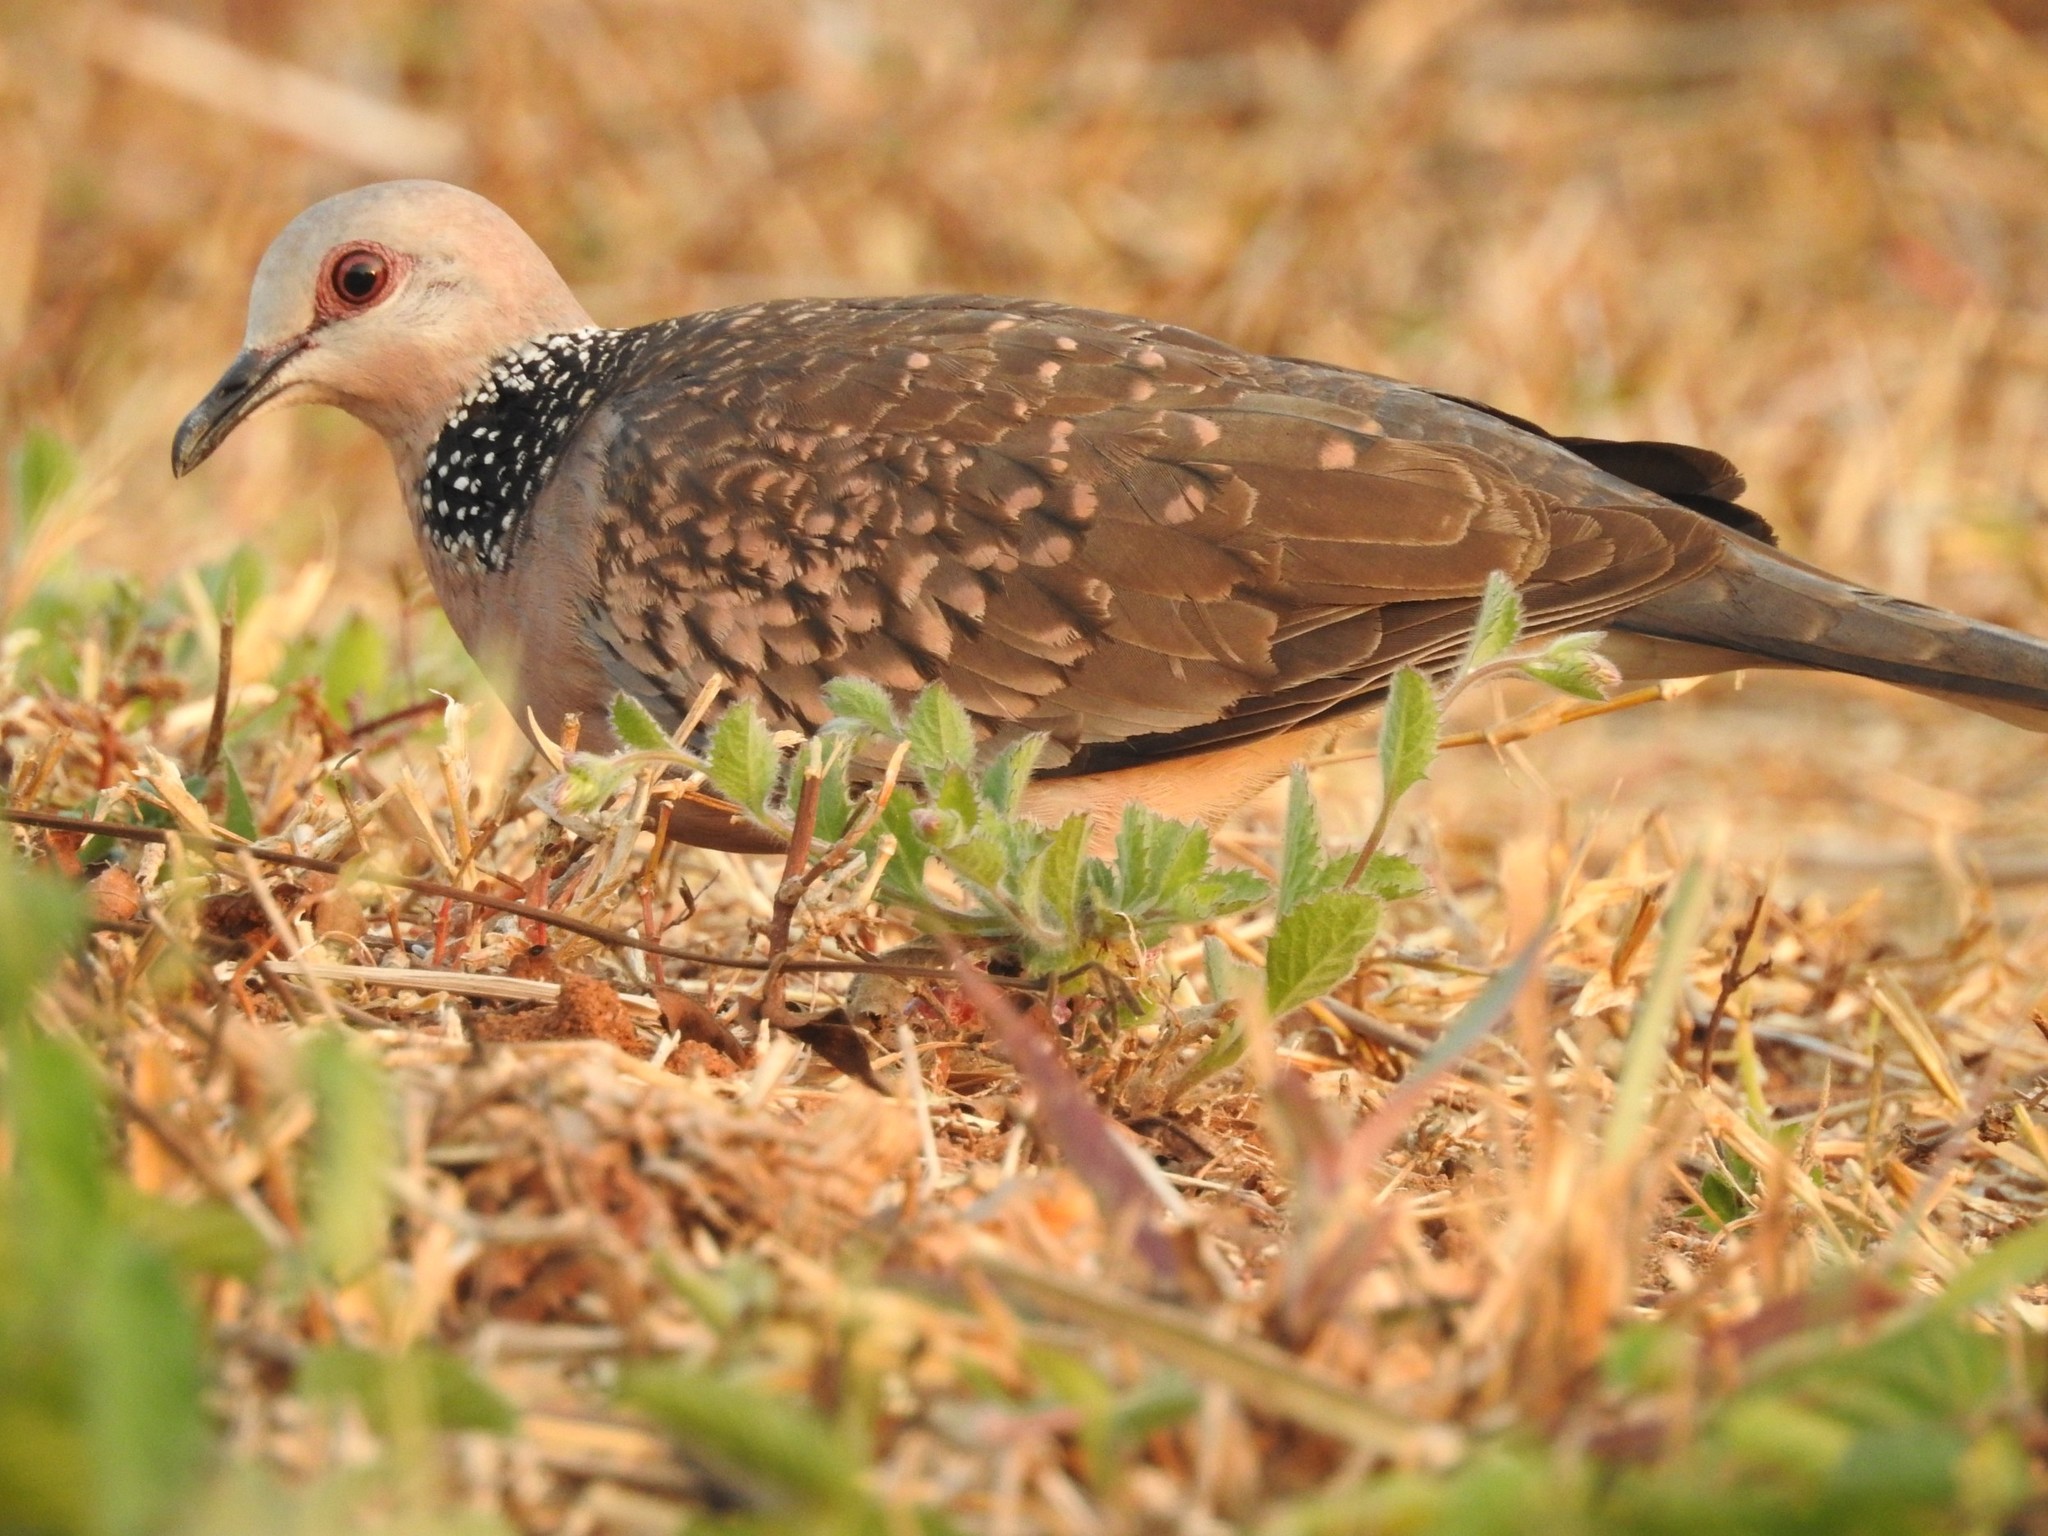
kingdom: Animalia
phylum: Chordata
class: Aves
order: Columbiformes
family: Columbidae
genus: Spilopelia
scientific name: Spilopelia chinensis
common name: Spotted dove
